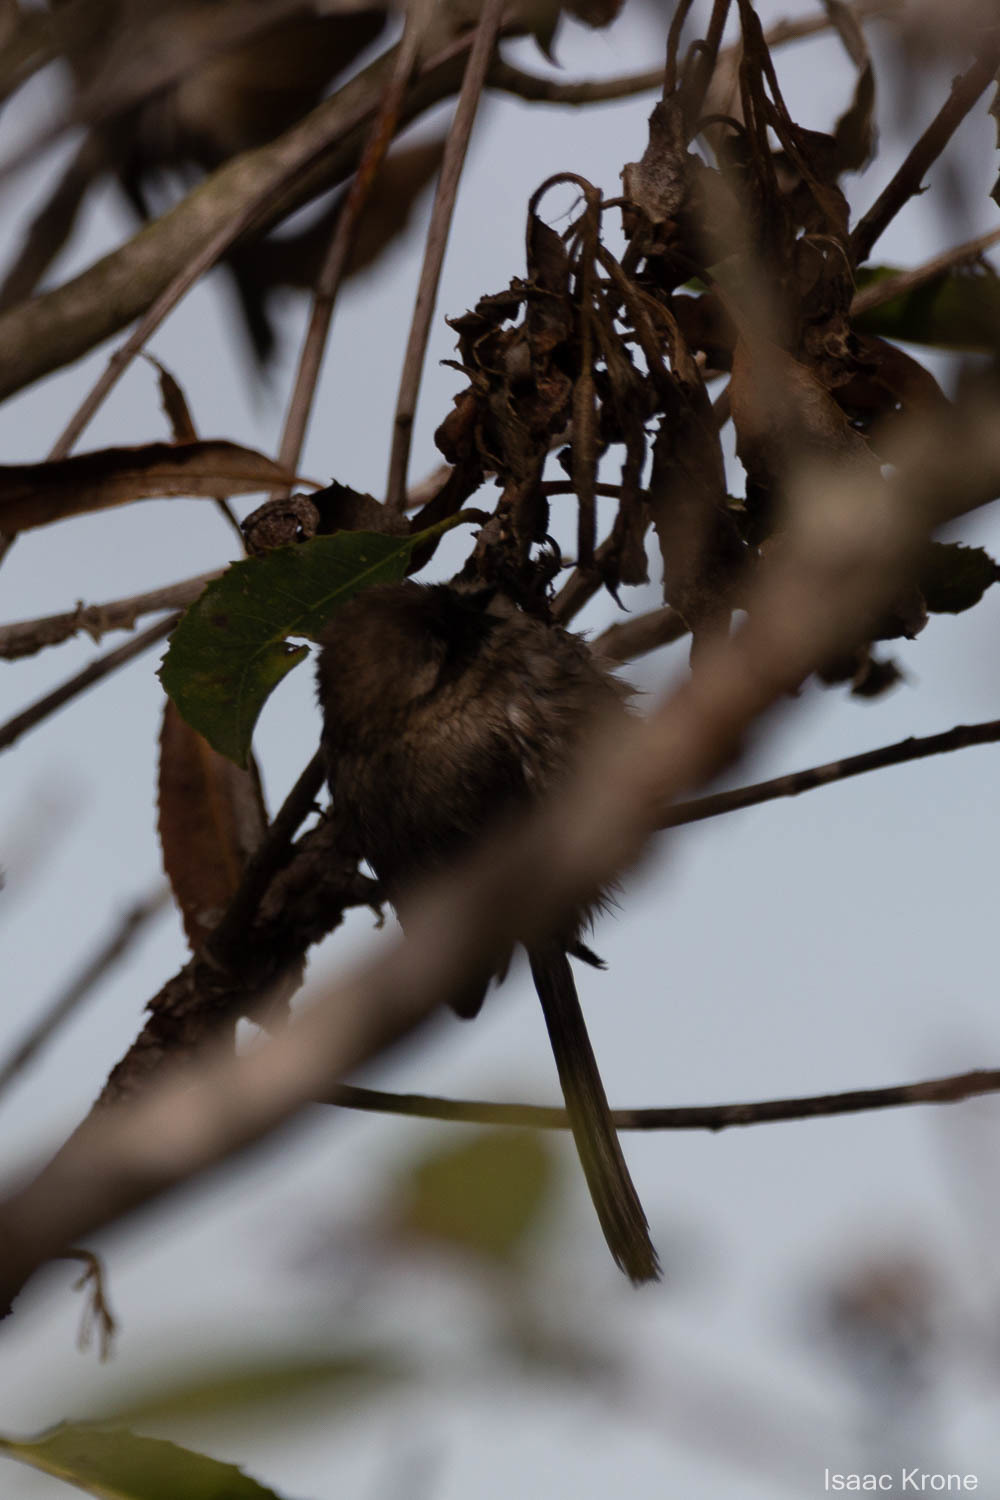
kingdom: Animalia
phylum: Chordata
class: Aves
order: Passeriformes
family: Aegithalidae
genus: Psaltriparus
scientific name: Psaltriparus minimus
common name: American bushtit
